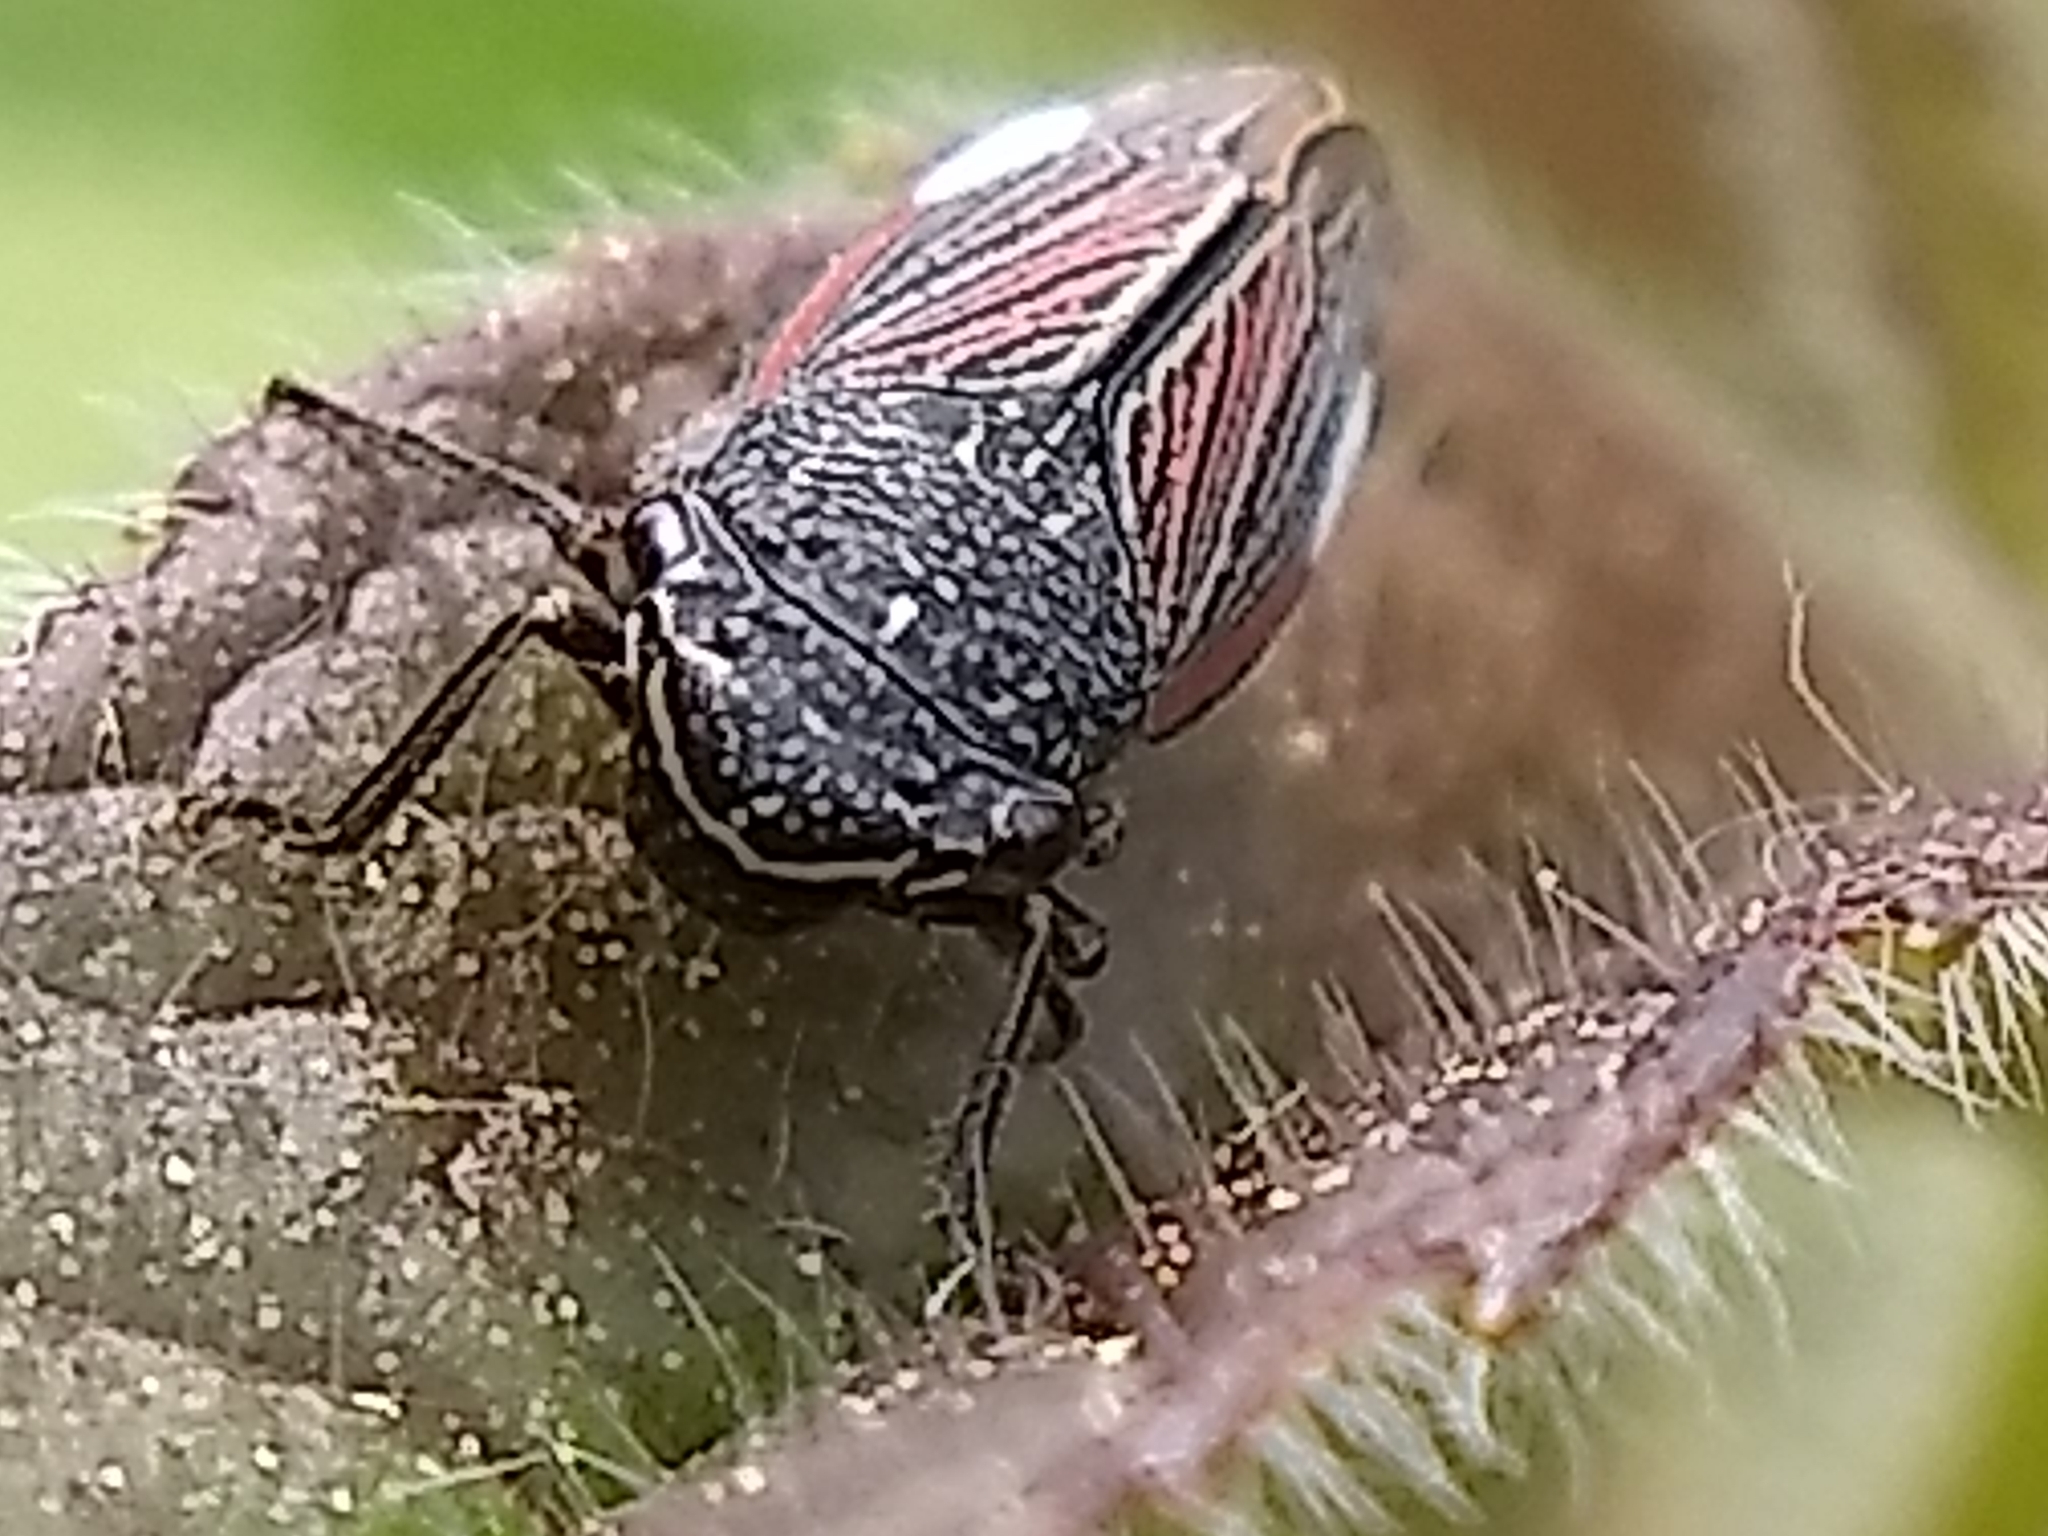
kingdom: Animalia
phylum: Arthropoda
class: Insecta
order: Hemiptera
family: Cicadellidae
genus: Cuerna
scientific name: Cuerna striata
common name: Striped leafhopper
